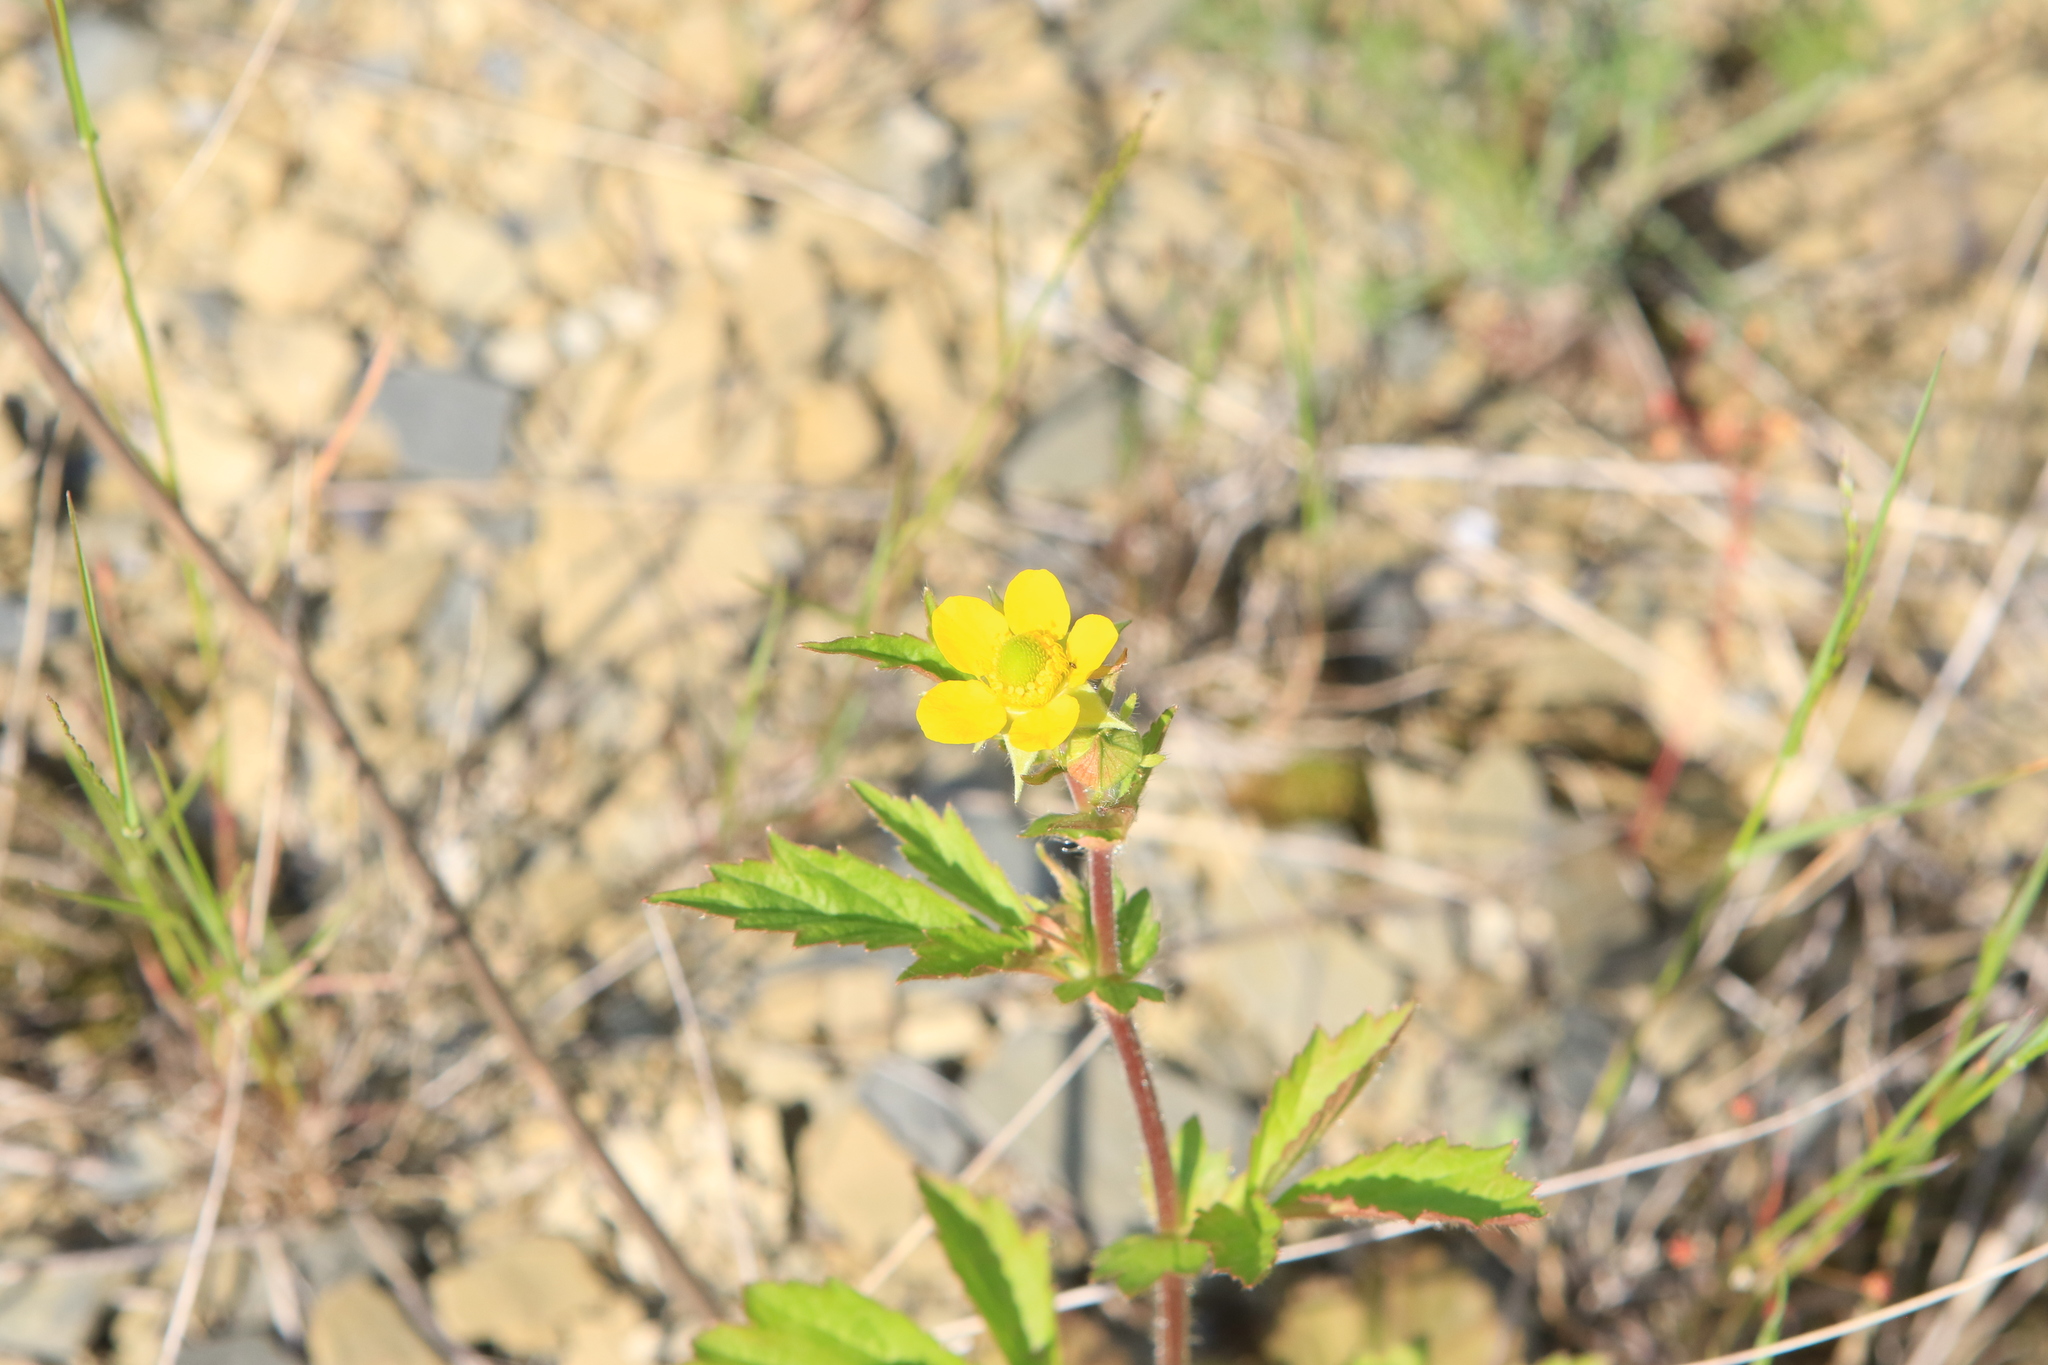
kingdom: Plantae
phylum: Tracheophyta
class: Magnoliopsida
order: Rosales
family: Rosaceae
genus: Geum
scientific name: Geum aleppicum
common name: Yellow avens
